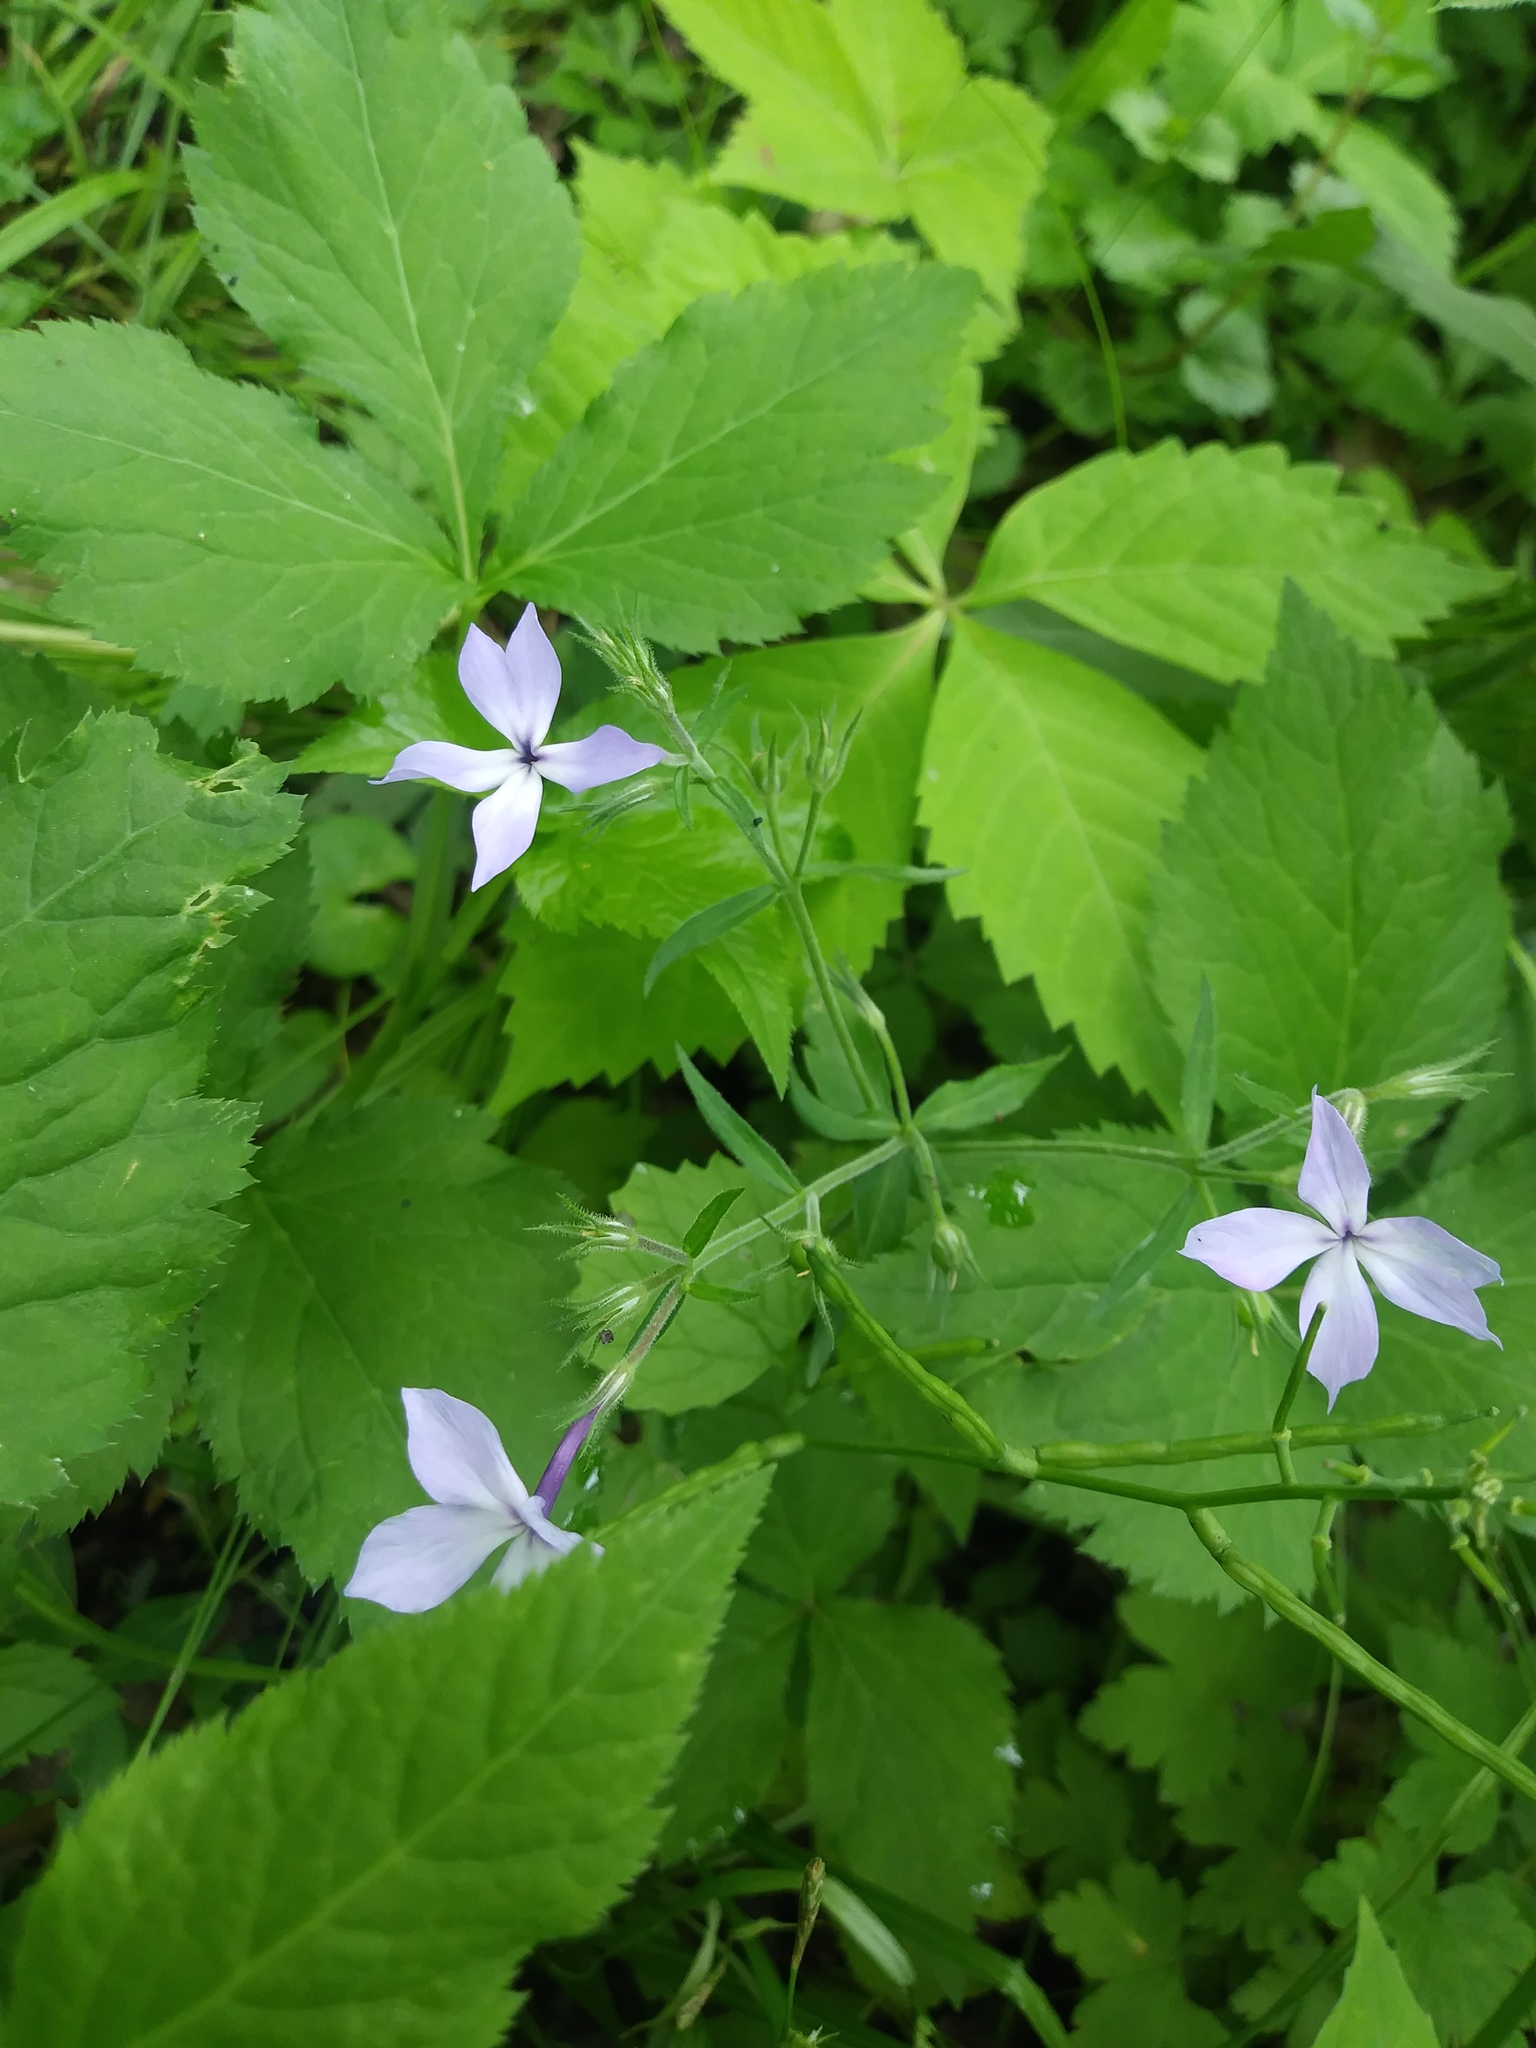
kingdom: Plantae
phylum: Tracheophyta
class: Magnoliopsida
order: Ericales
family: Polemoniaceae
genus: Phlox
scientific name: Phlox divaricata
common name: Blue phlox
